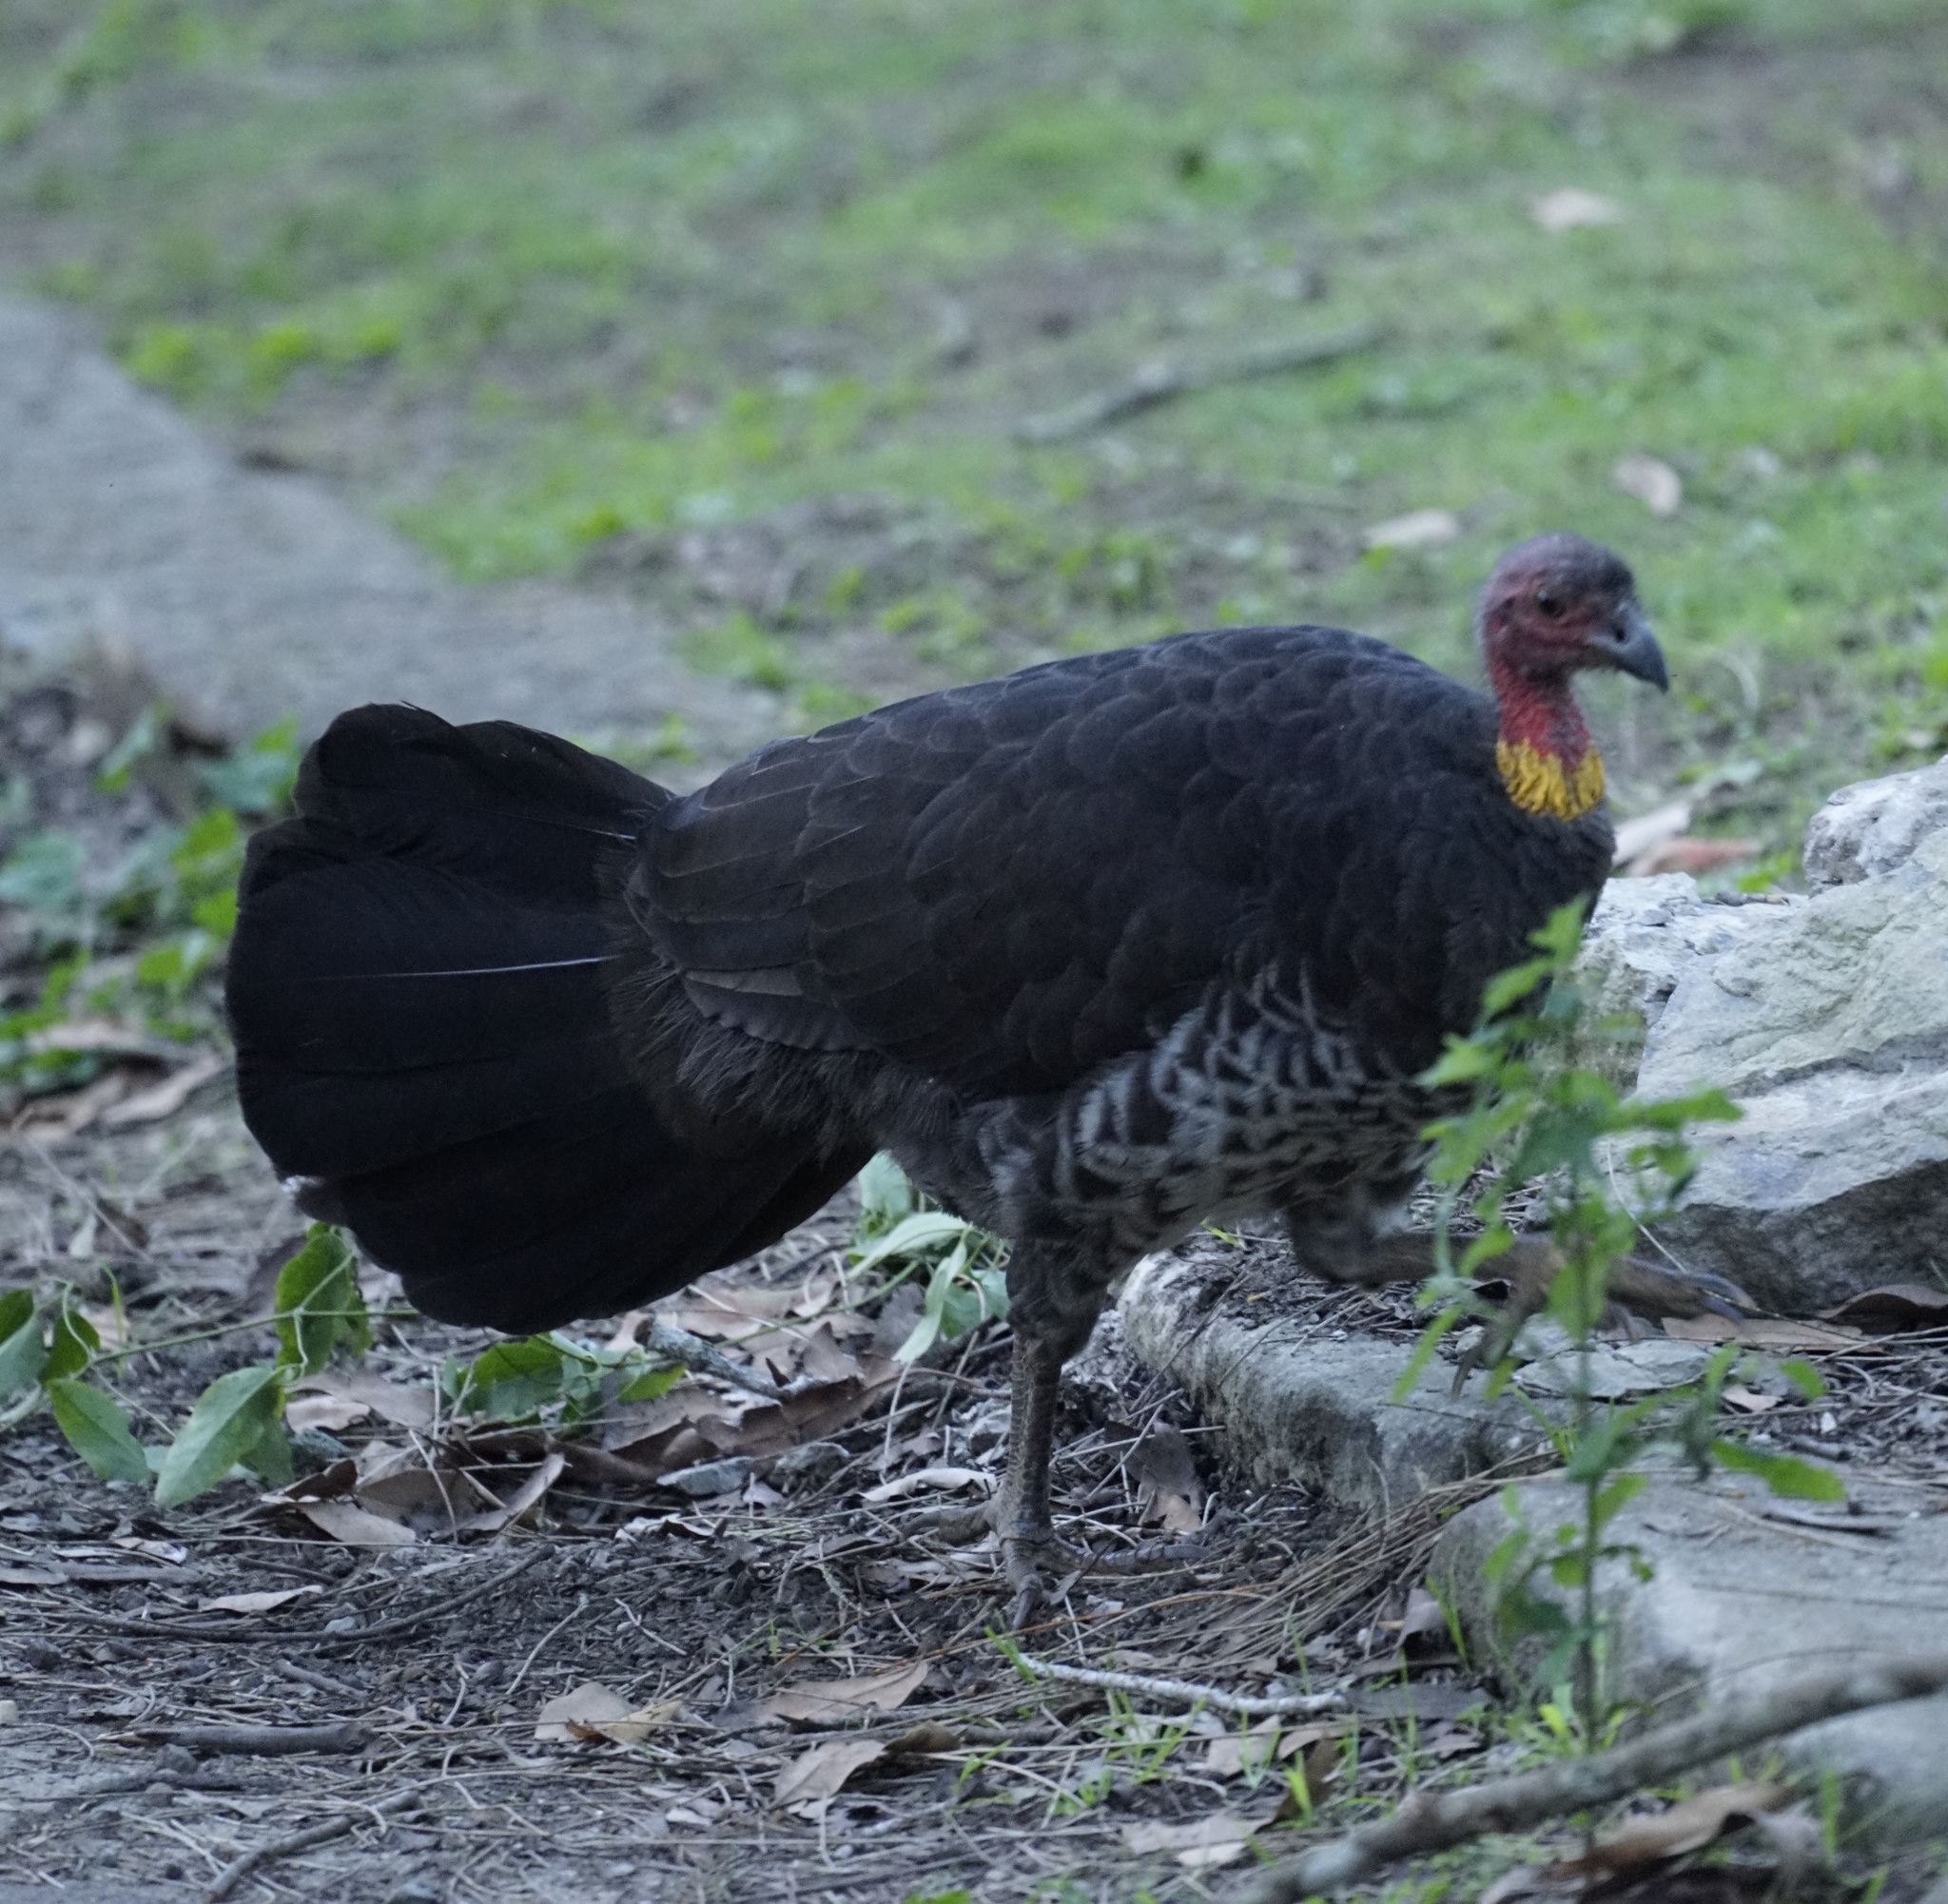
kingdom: Animalia
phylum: Chordata
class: Aves
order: Galliformes
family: Megapodiidae
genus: Alectura
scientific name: Alectura lathami
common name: Australian brushturkey
